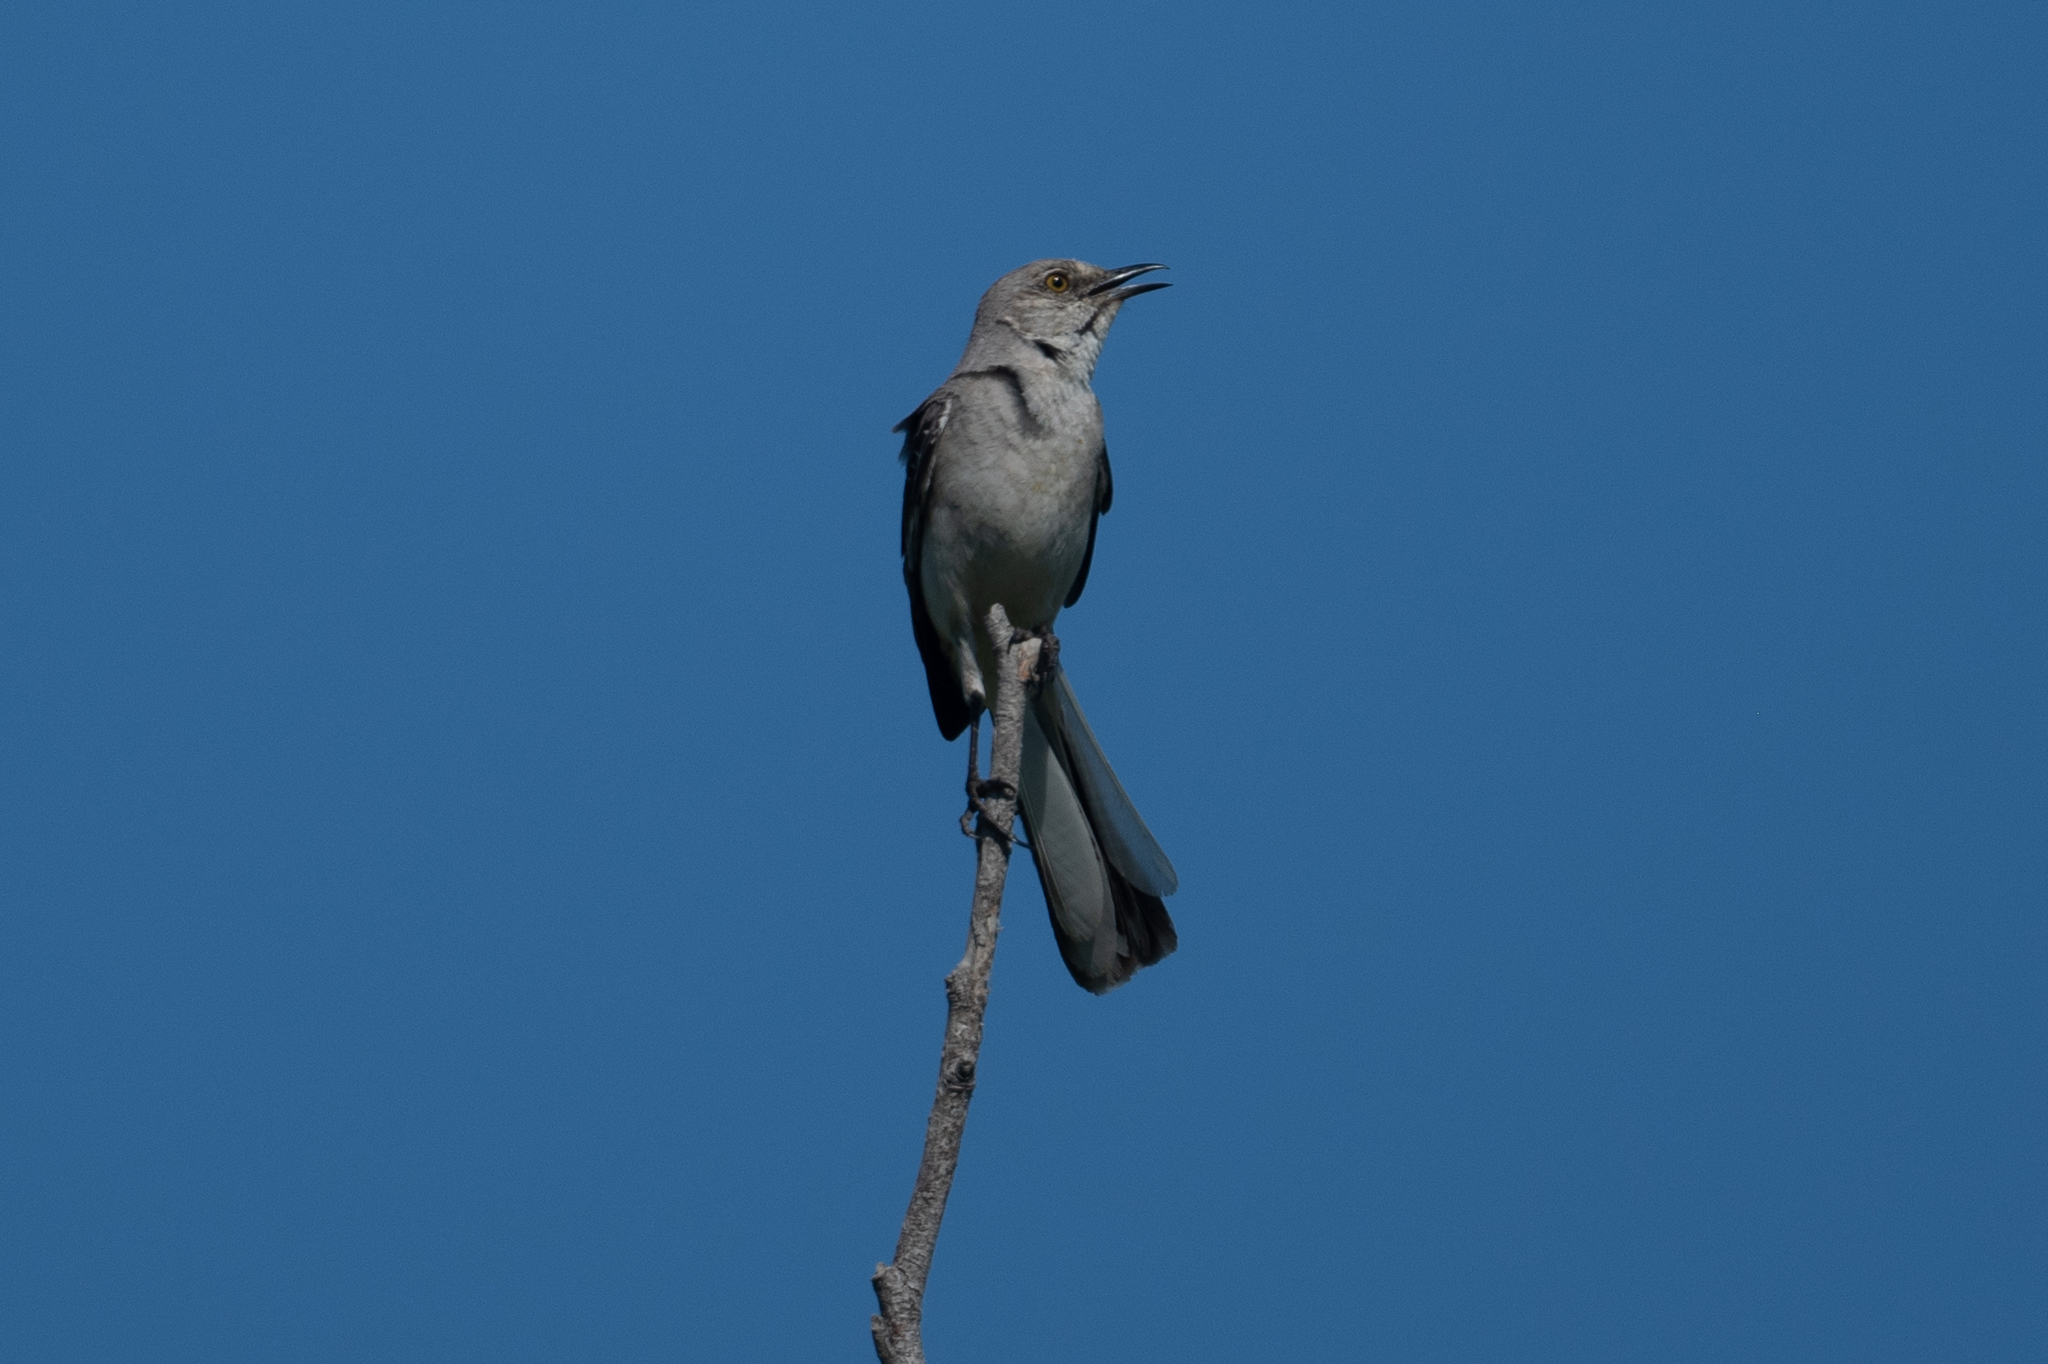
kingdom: Animalia
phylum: Chordata
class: Aves
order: Passeriformes
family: Mimidae
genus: Mimus
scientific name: Mimus polyglottos
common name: Northern mockingbird
